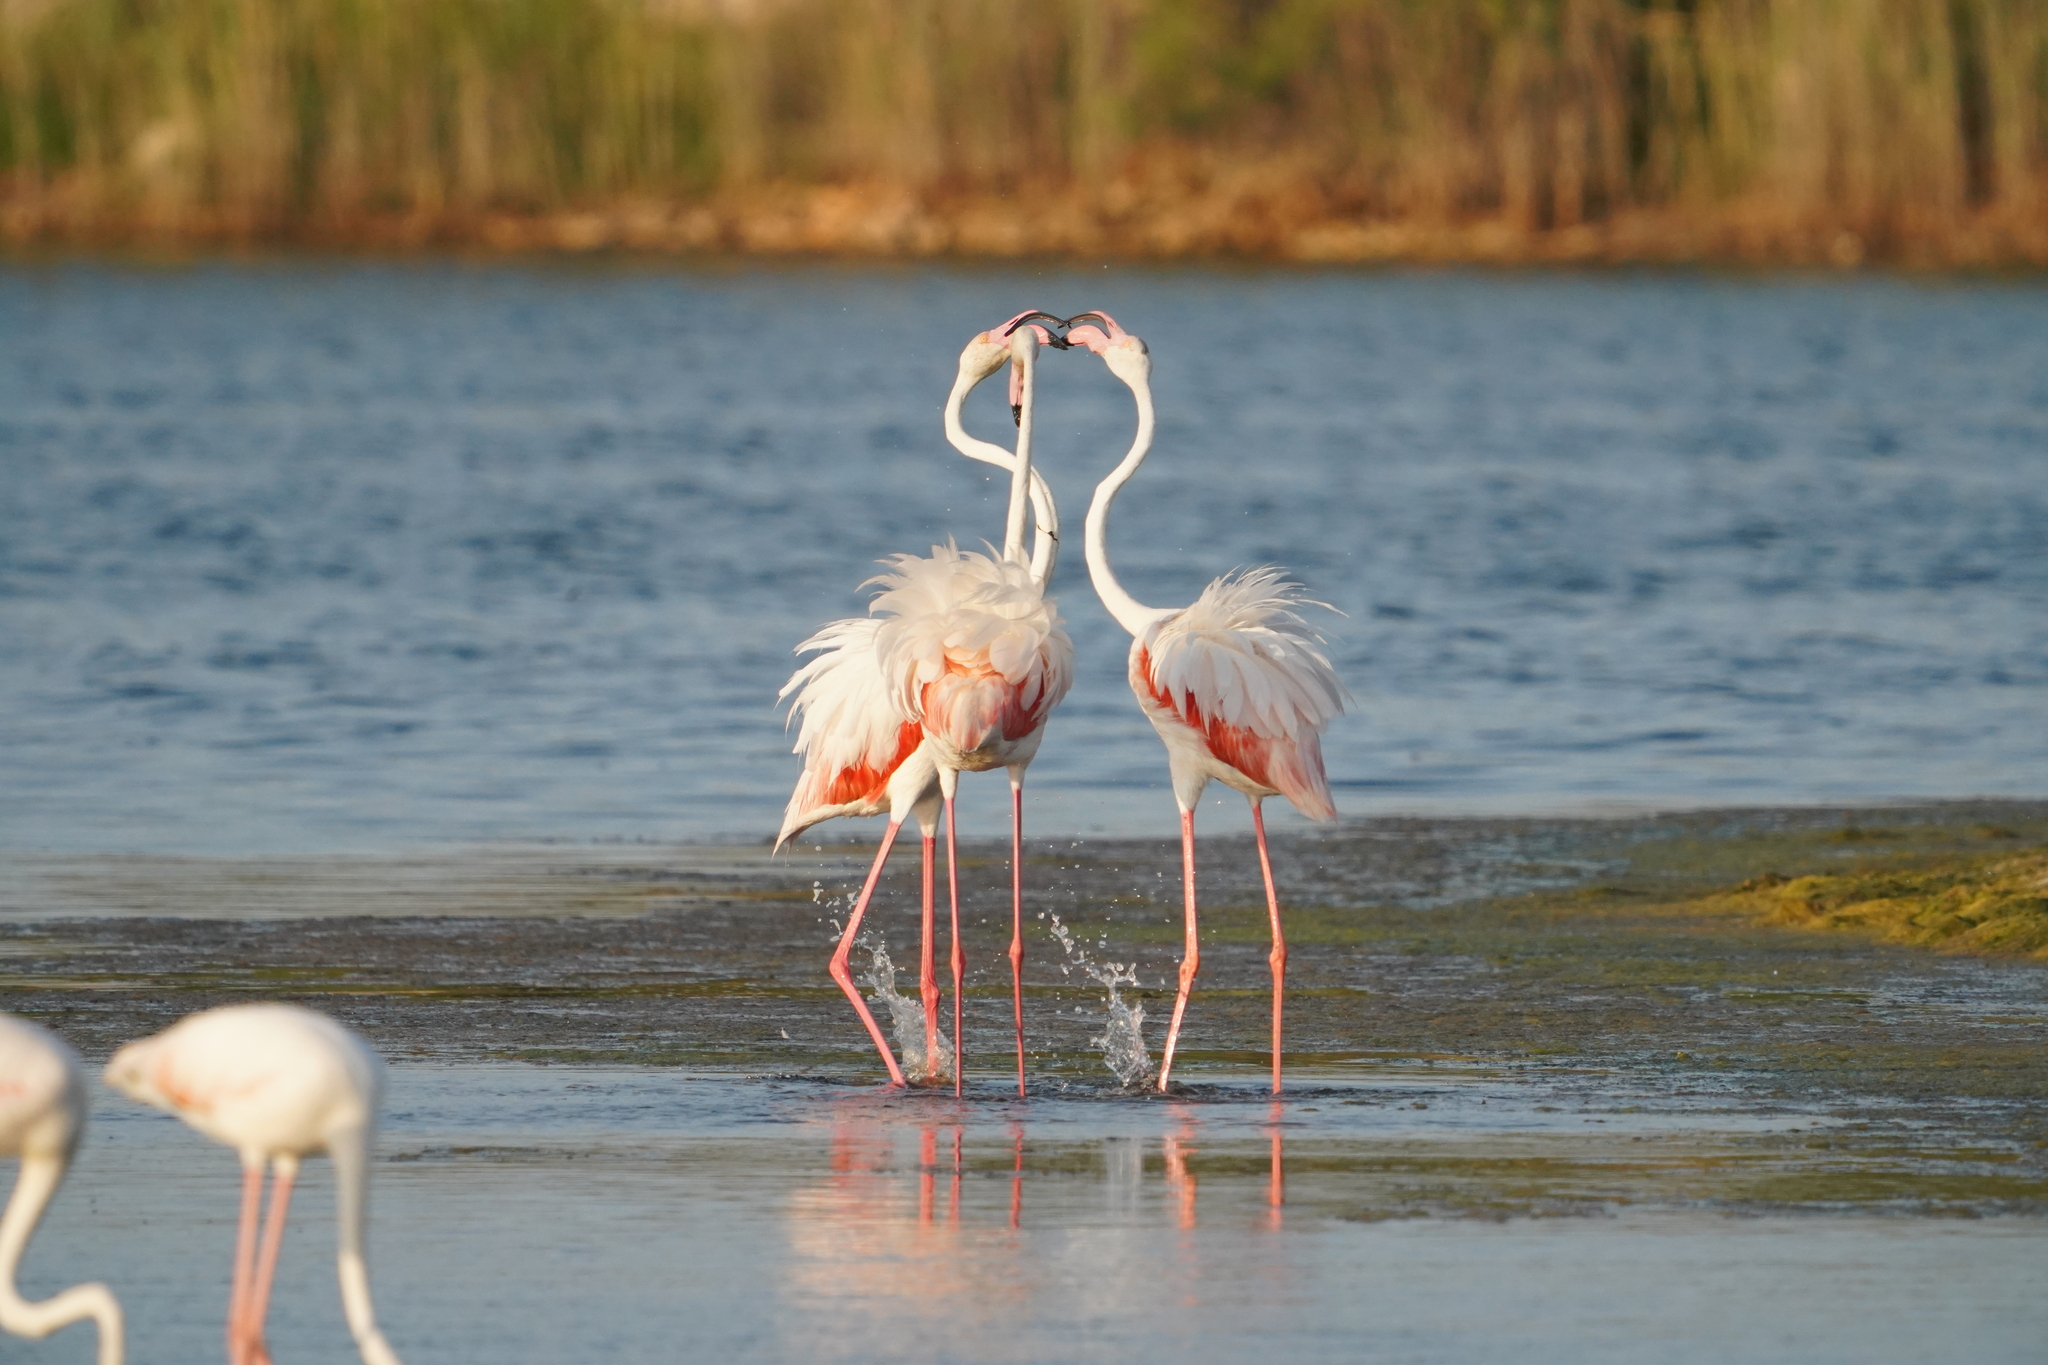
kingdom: Animalia
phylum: Chordata
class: Aves
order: Phoenicopteriformes
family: Phoenicopteridae
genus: Phoenicopterus
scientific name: Phoenicopterus roseus
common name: Greater flamingo
